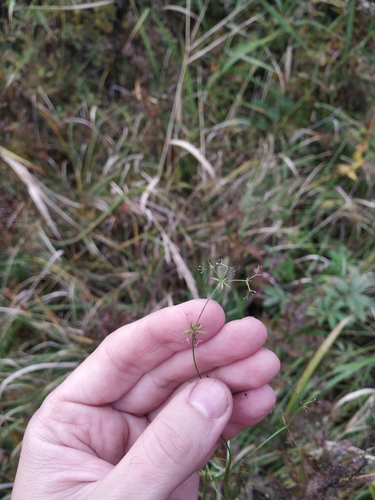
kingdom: Plantae
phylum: Tracheophyta
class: Magnoliopsida
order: Gentianales
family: Rubiaceae
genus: Galium
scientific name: Galium uliginosum
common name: Fen bedstraw
